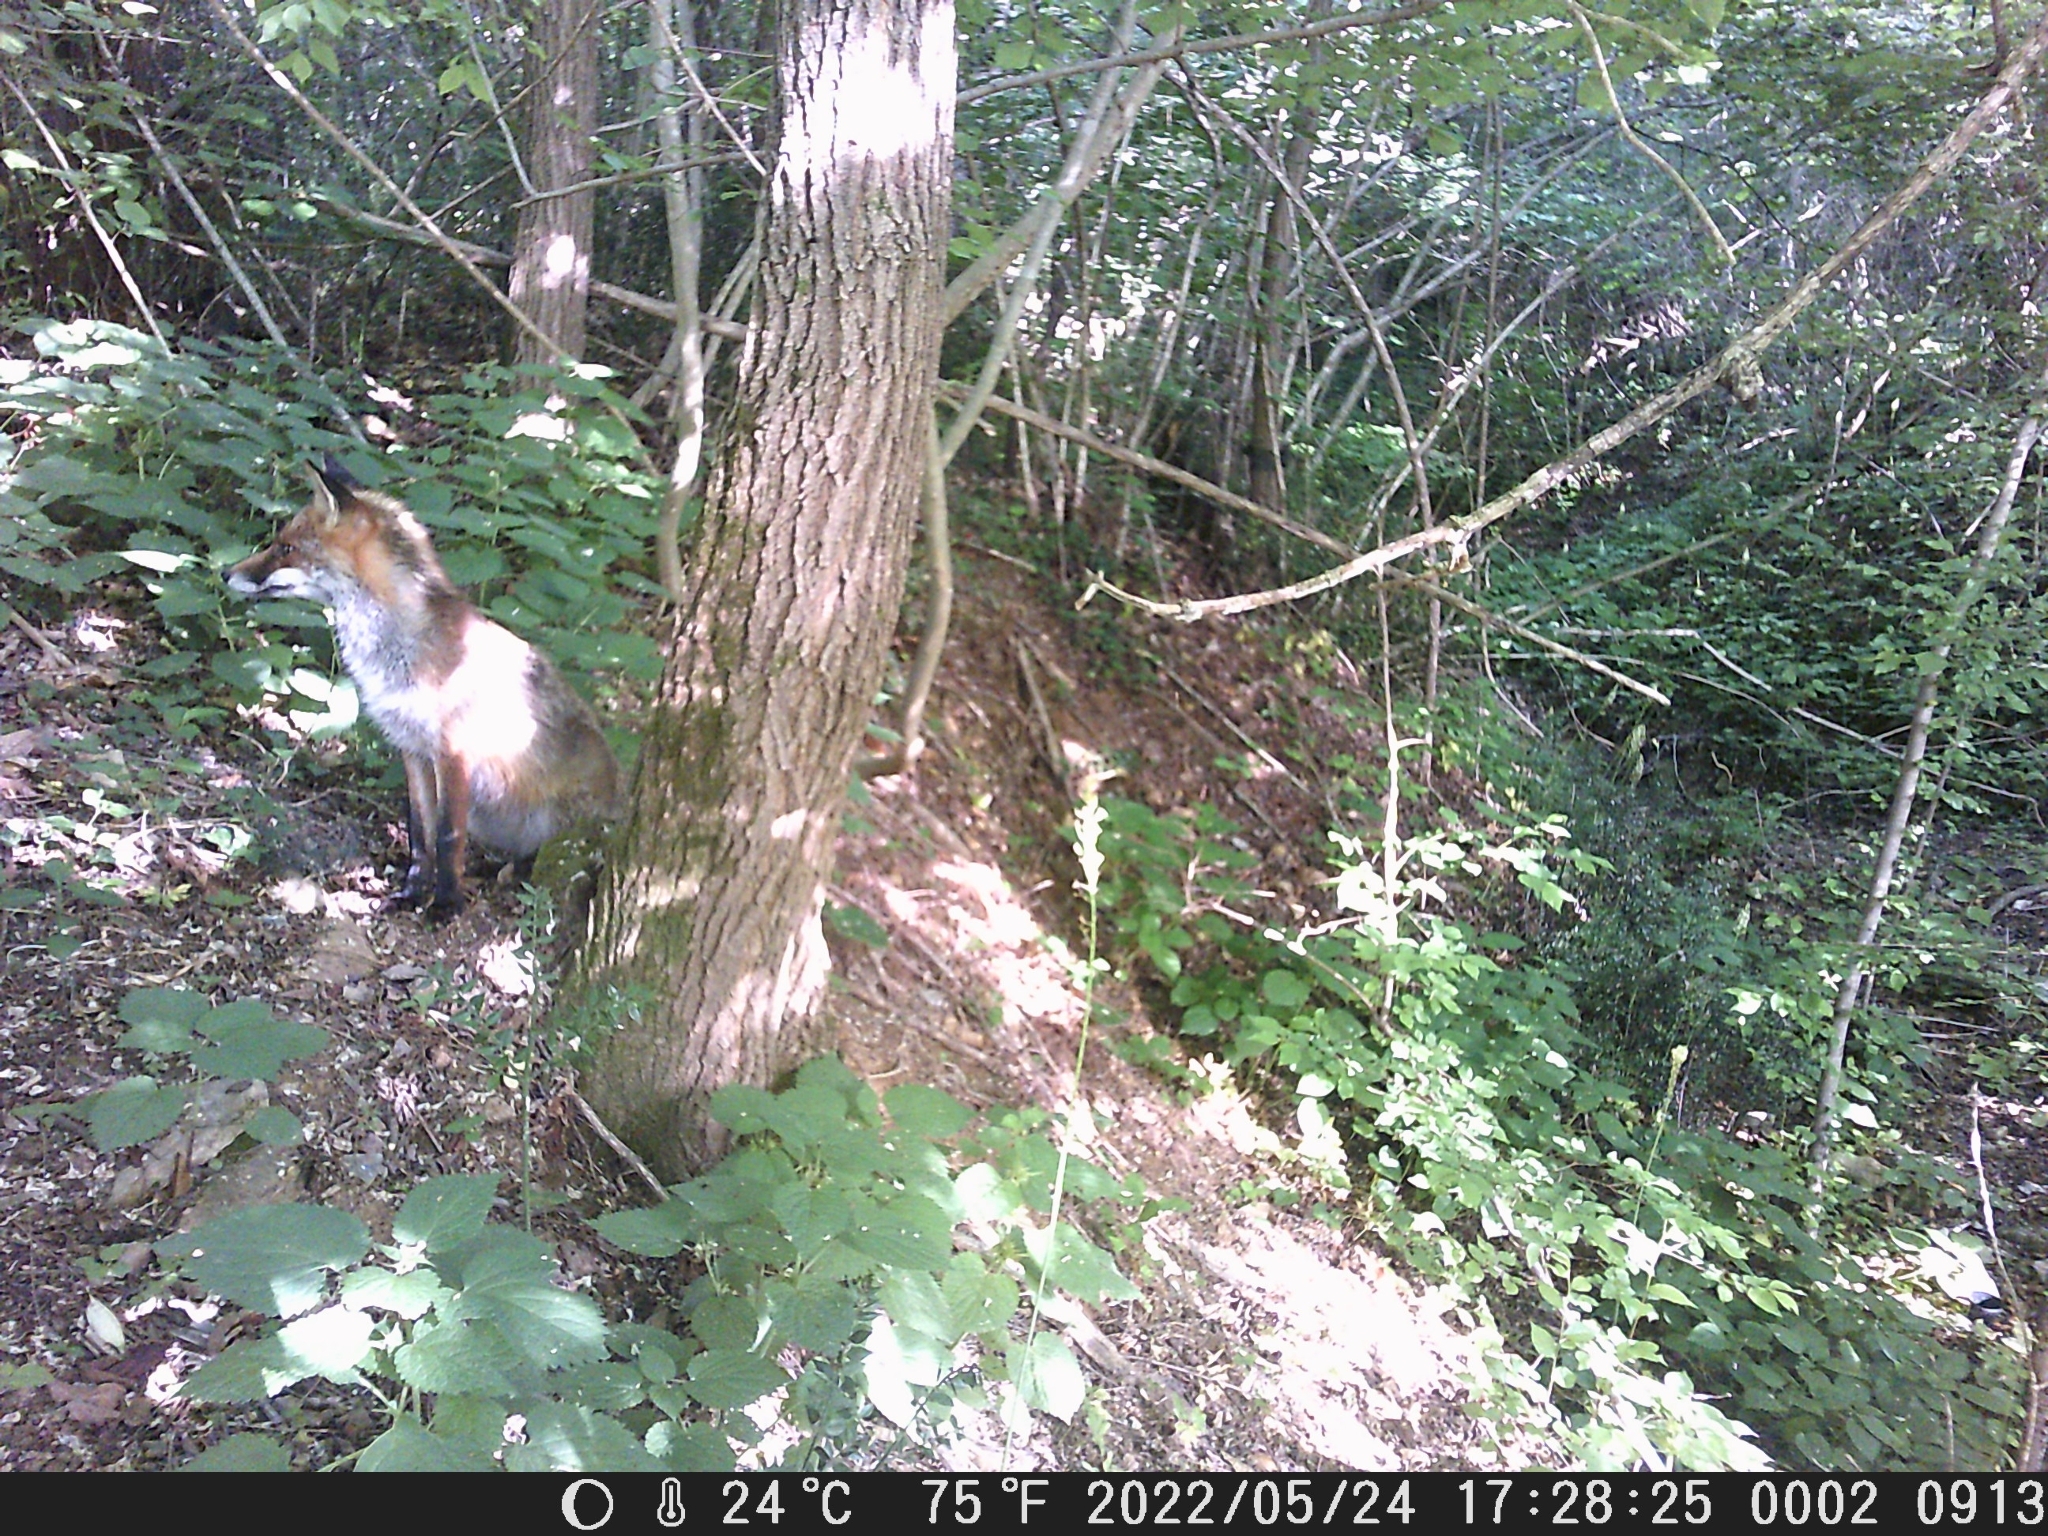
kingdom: Animalia
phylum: Chordata
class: Mammalia
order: Carnivora
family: Canidae
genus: Vulpes
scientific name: Vulpes vulpes
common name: Red fox
